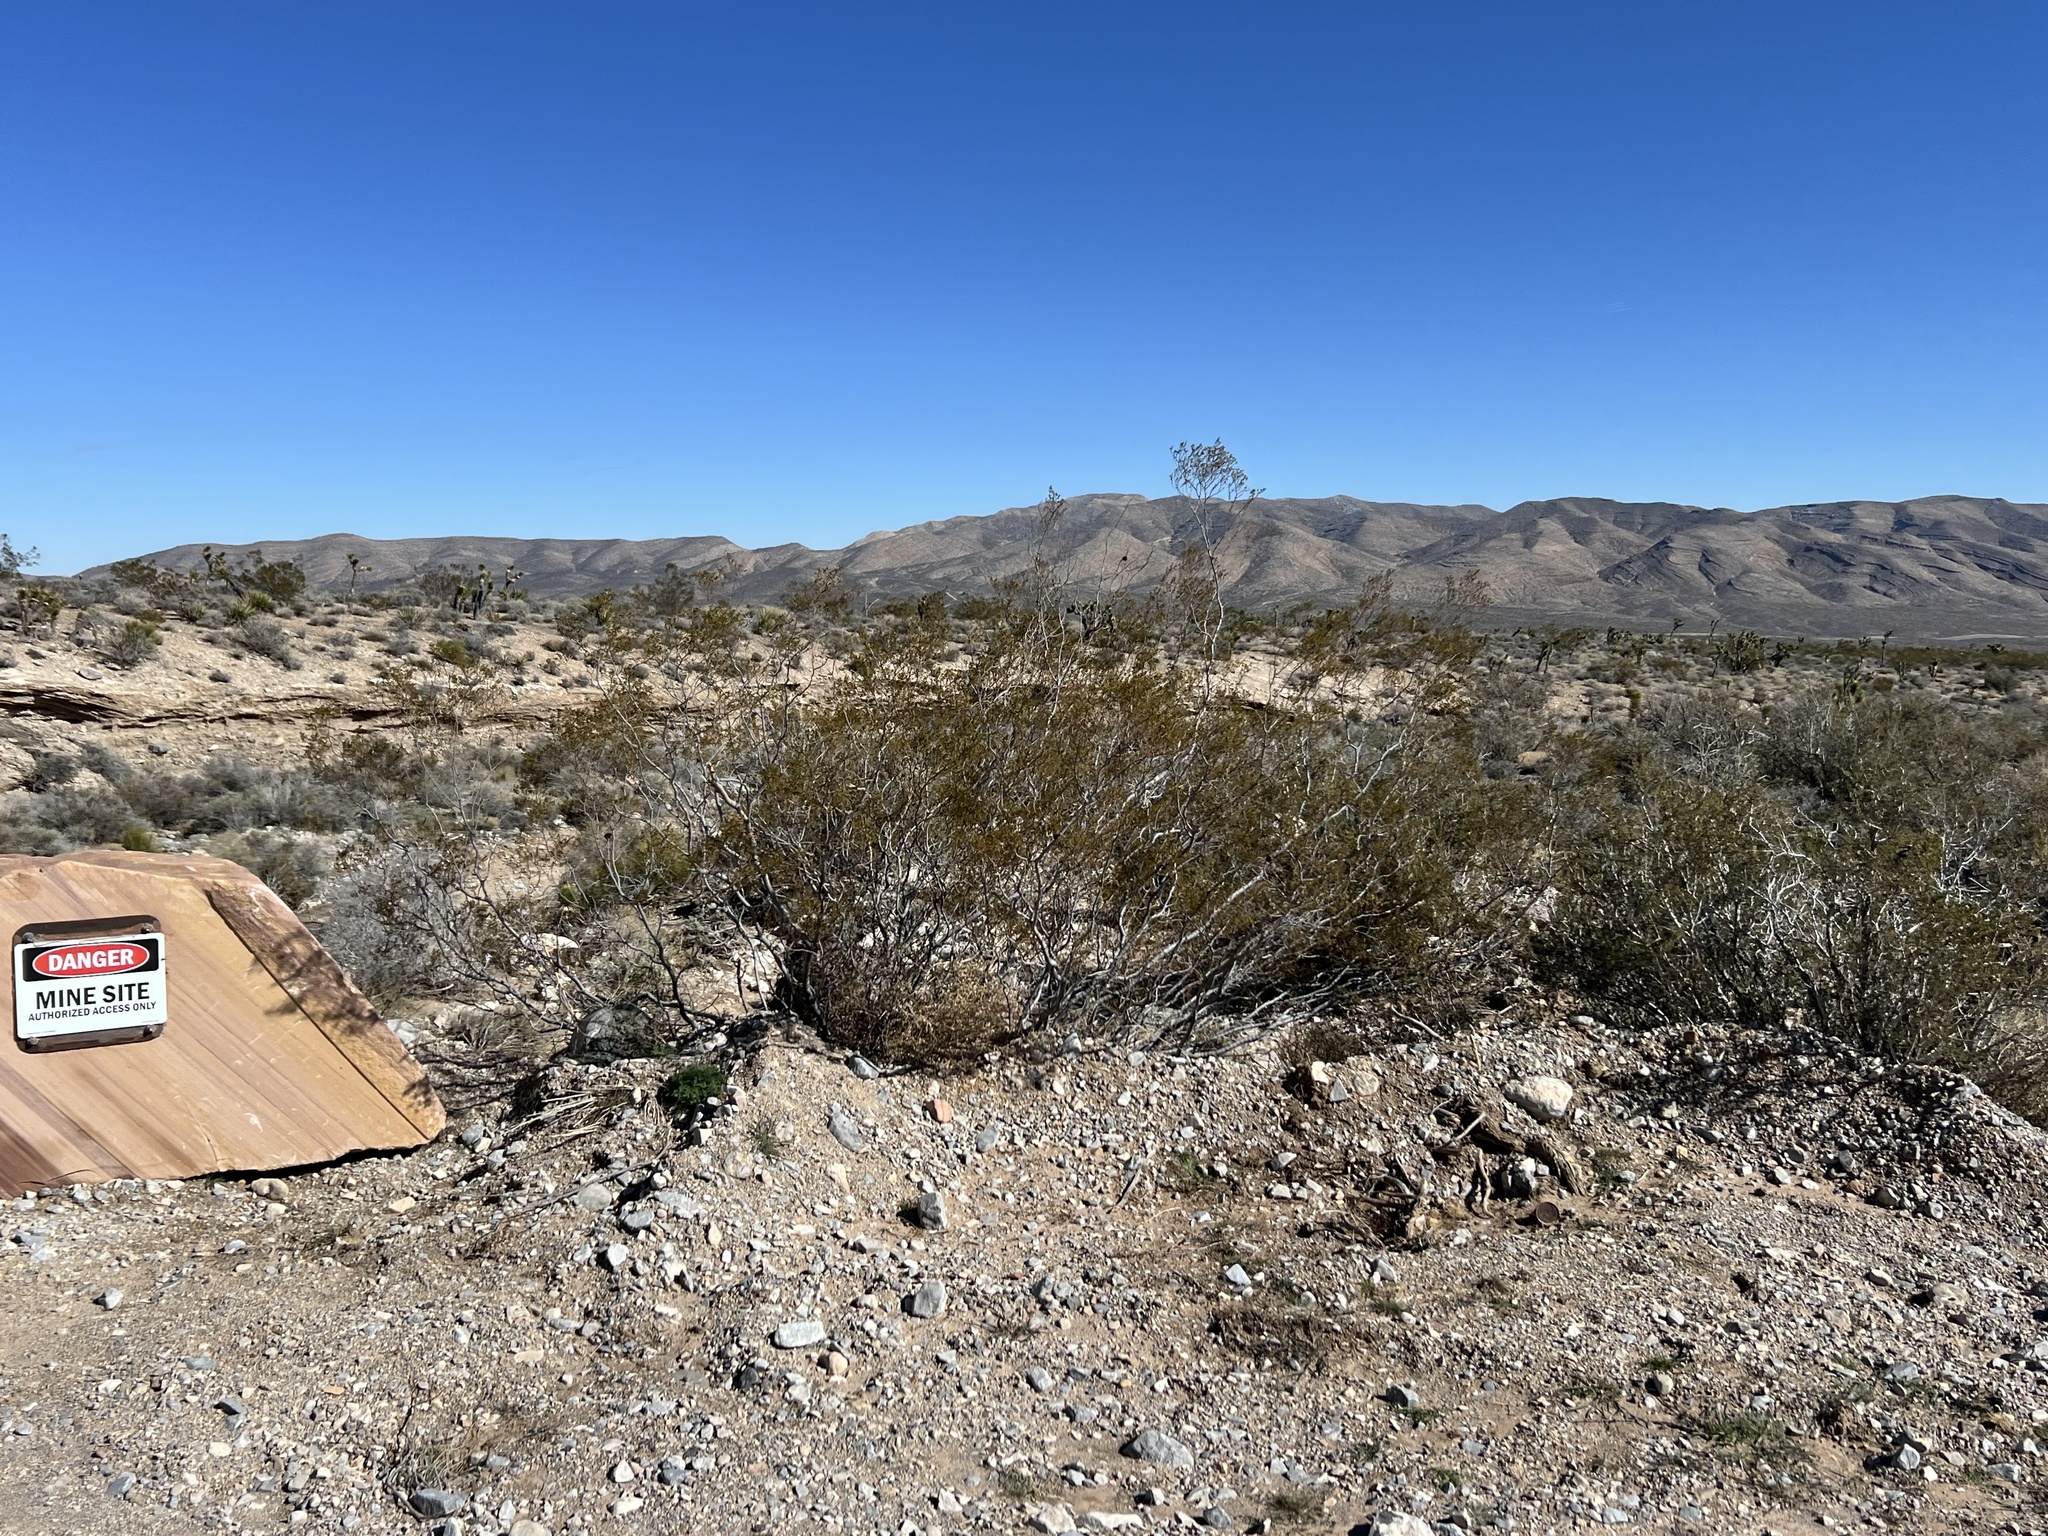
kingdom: Plantae
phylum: Tracheophyta
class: Magnoliopsida
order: Zygophyllales
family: Zygophyllaceae
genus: Larrea
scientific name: Larrea tridentata
